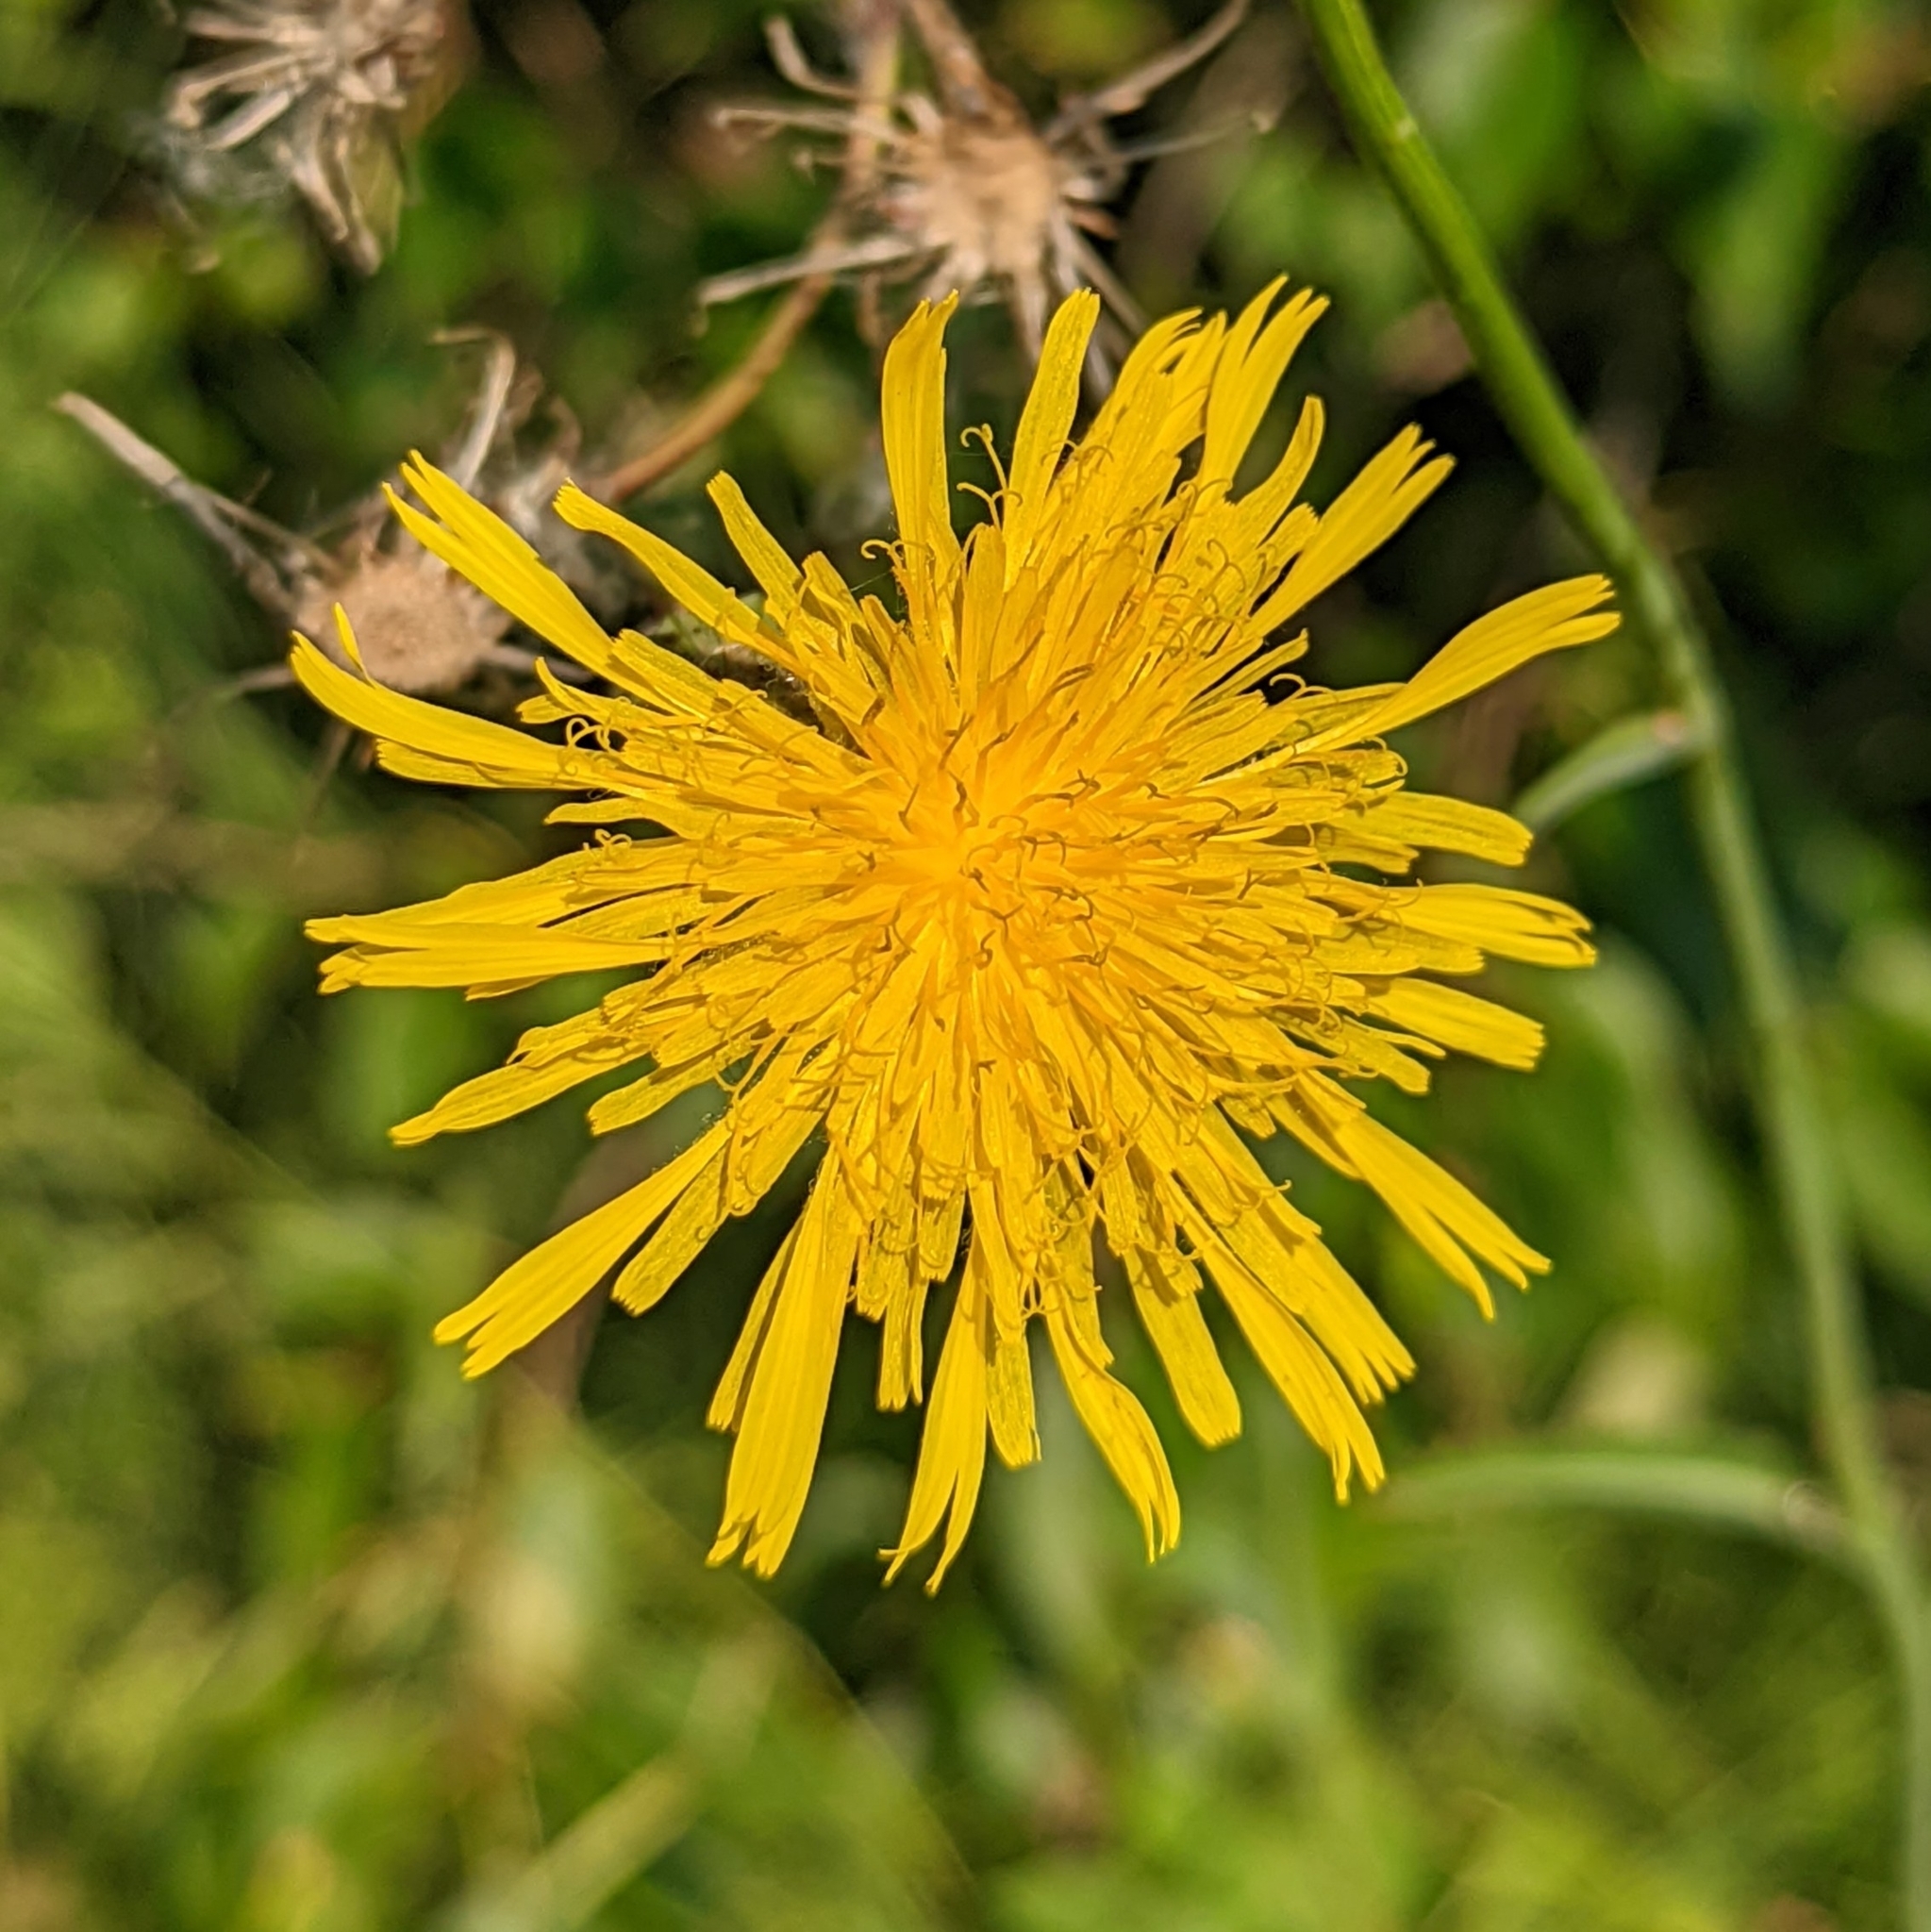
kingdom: Plantae
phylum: Tracheophyta
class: Magnoliopsida
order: Asterales
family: Asteraceae
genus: Sonchus
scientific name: Sonchus arvensis
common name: Perennial sow-thistle
